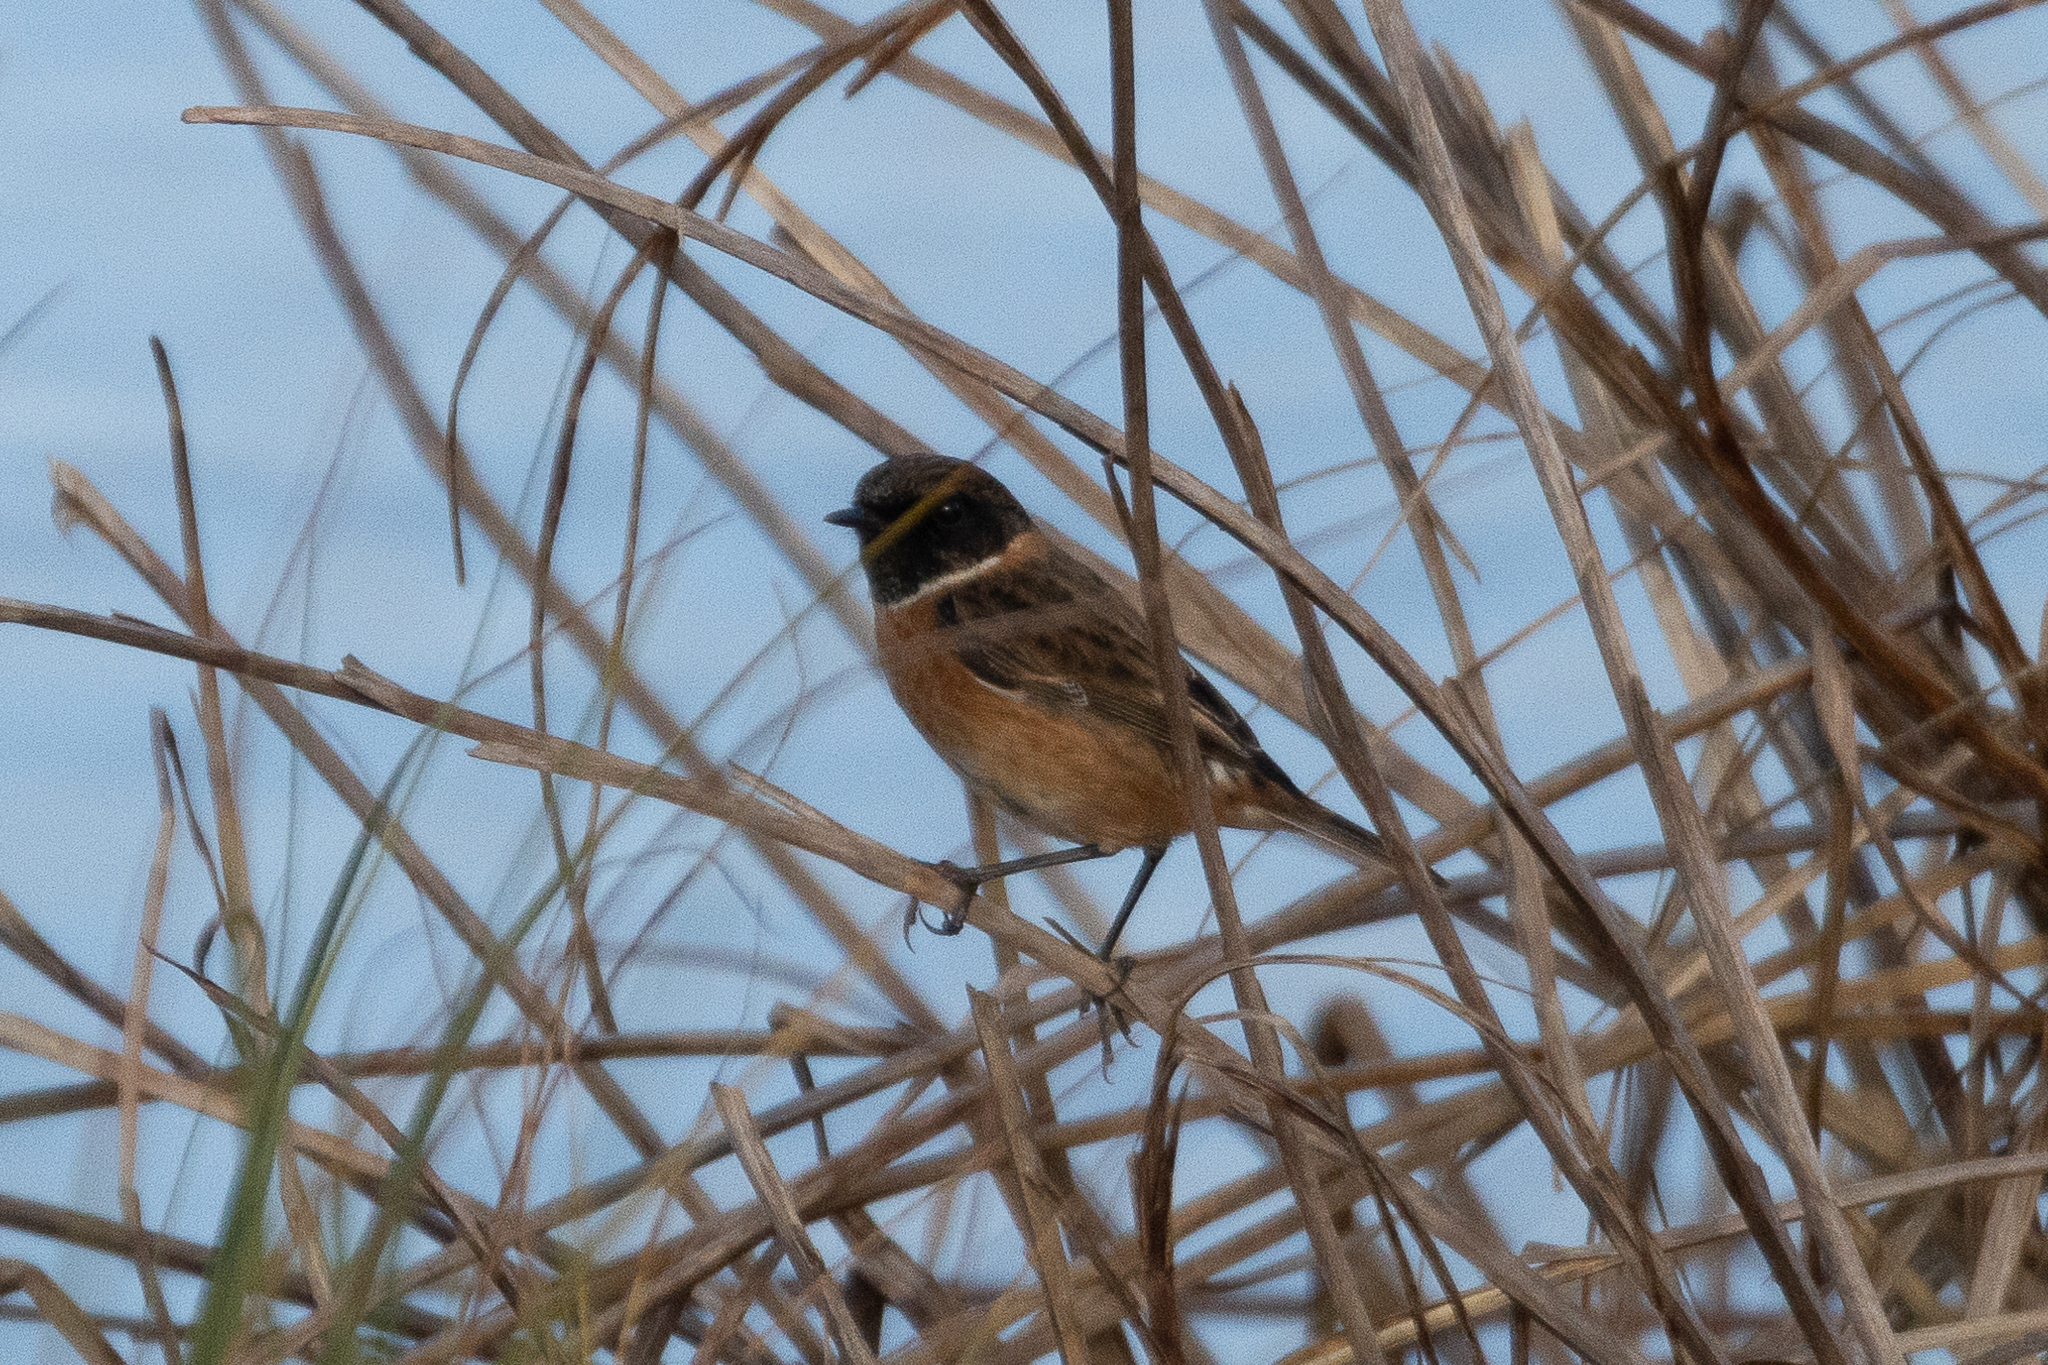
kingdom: Animalia
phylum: Chordata
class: Aves
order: Passeriformes
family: Muscicapidae
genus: Saxicola
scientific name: Saxicola rubicola
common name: European stonechat
